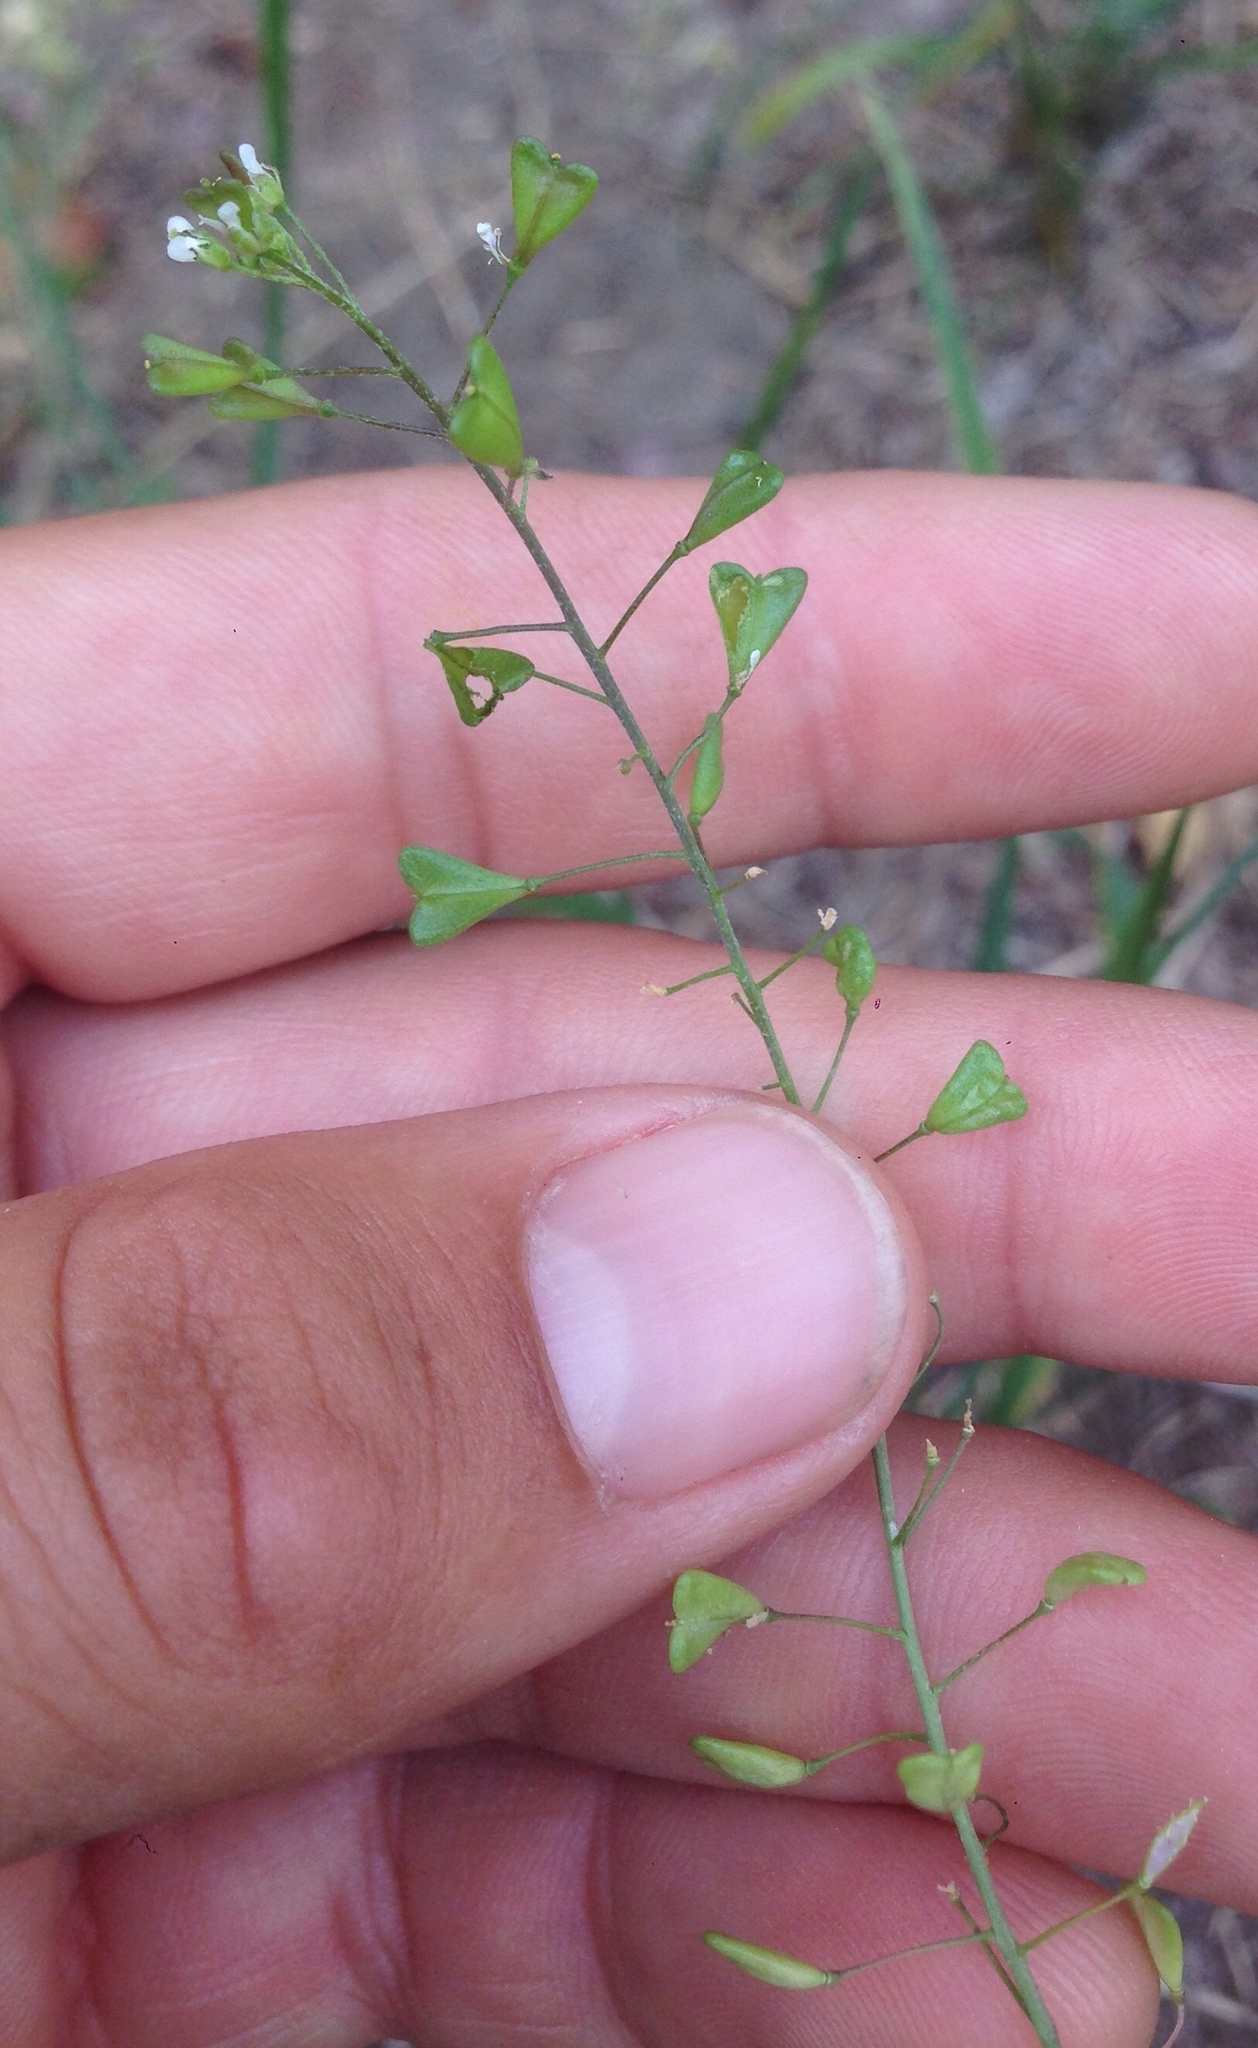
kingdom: Plantae
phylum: Tracheophyta
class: Magnoliopsida
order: Brassicales
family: Brassicaceae
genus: Capsella
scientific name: Capsella bursa-pastoris
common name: Shepherd's purse
